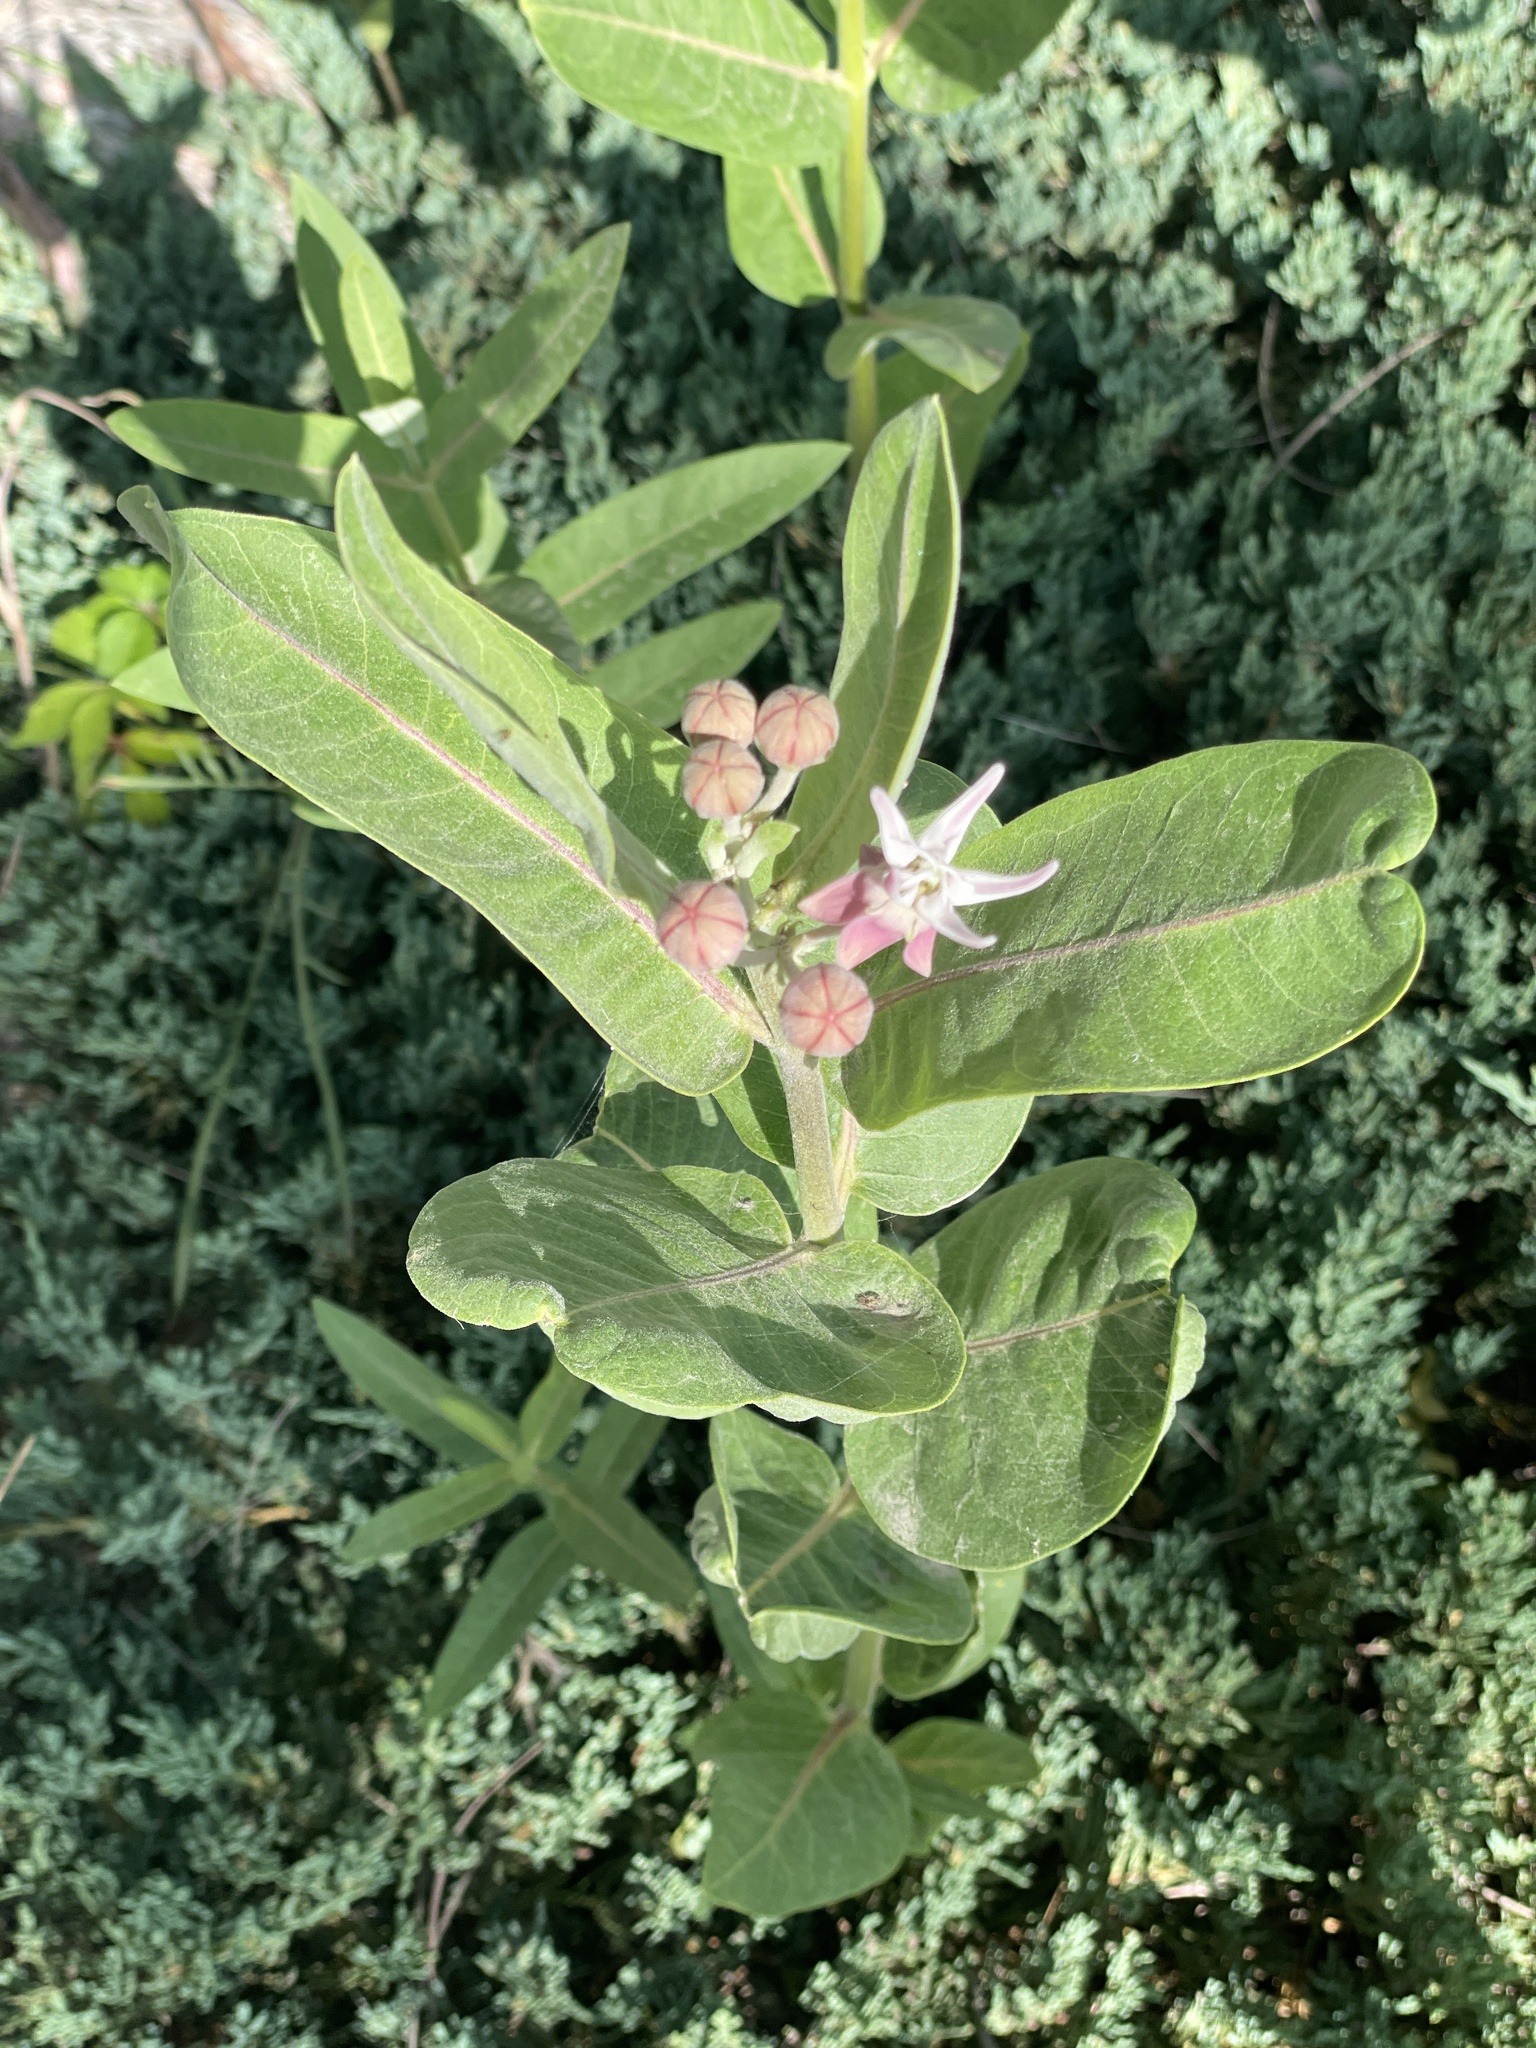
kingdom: Plantae
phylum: Tracheophyta
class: Magnoliopsida
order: Gentianales
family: Apocynaceae
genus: Asclepias
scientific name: Asclepias speciosa
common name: Showy milkweed
